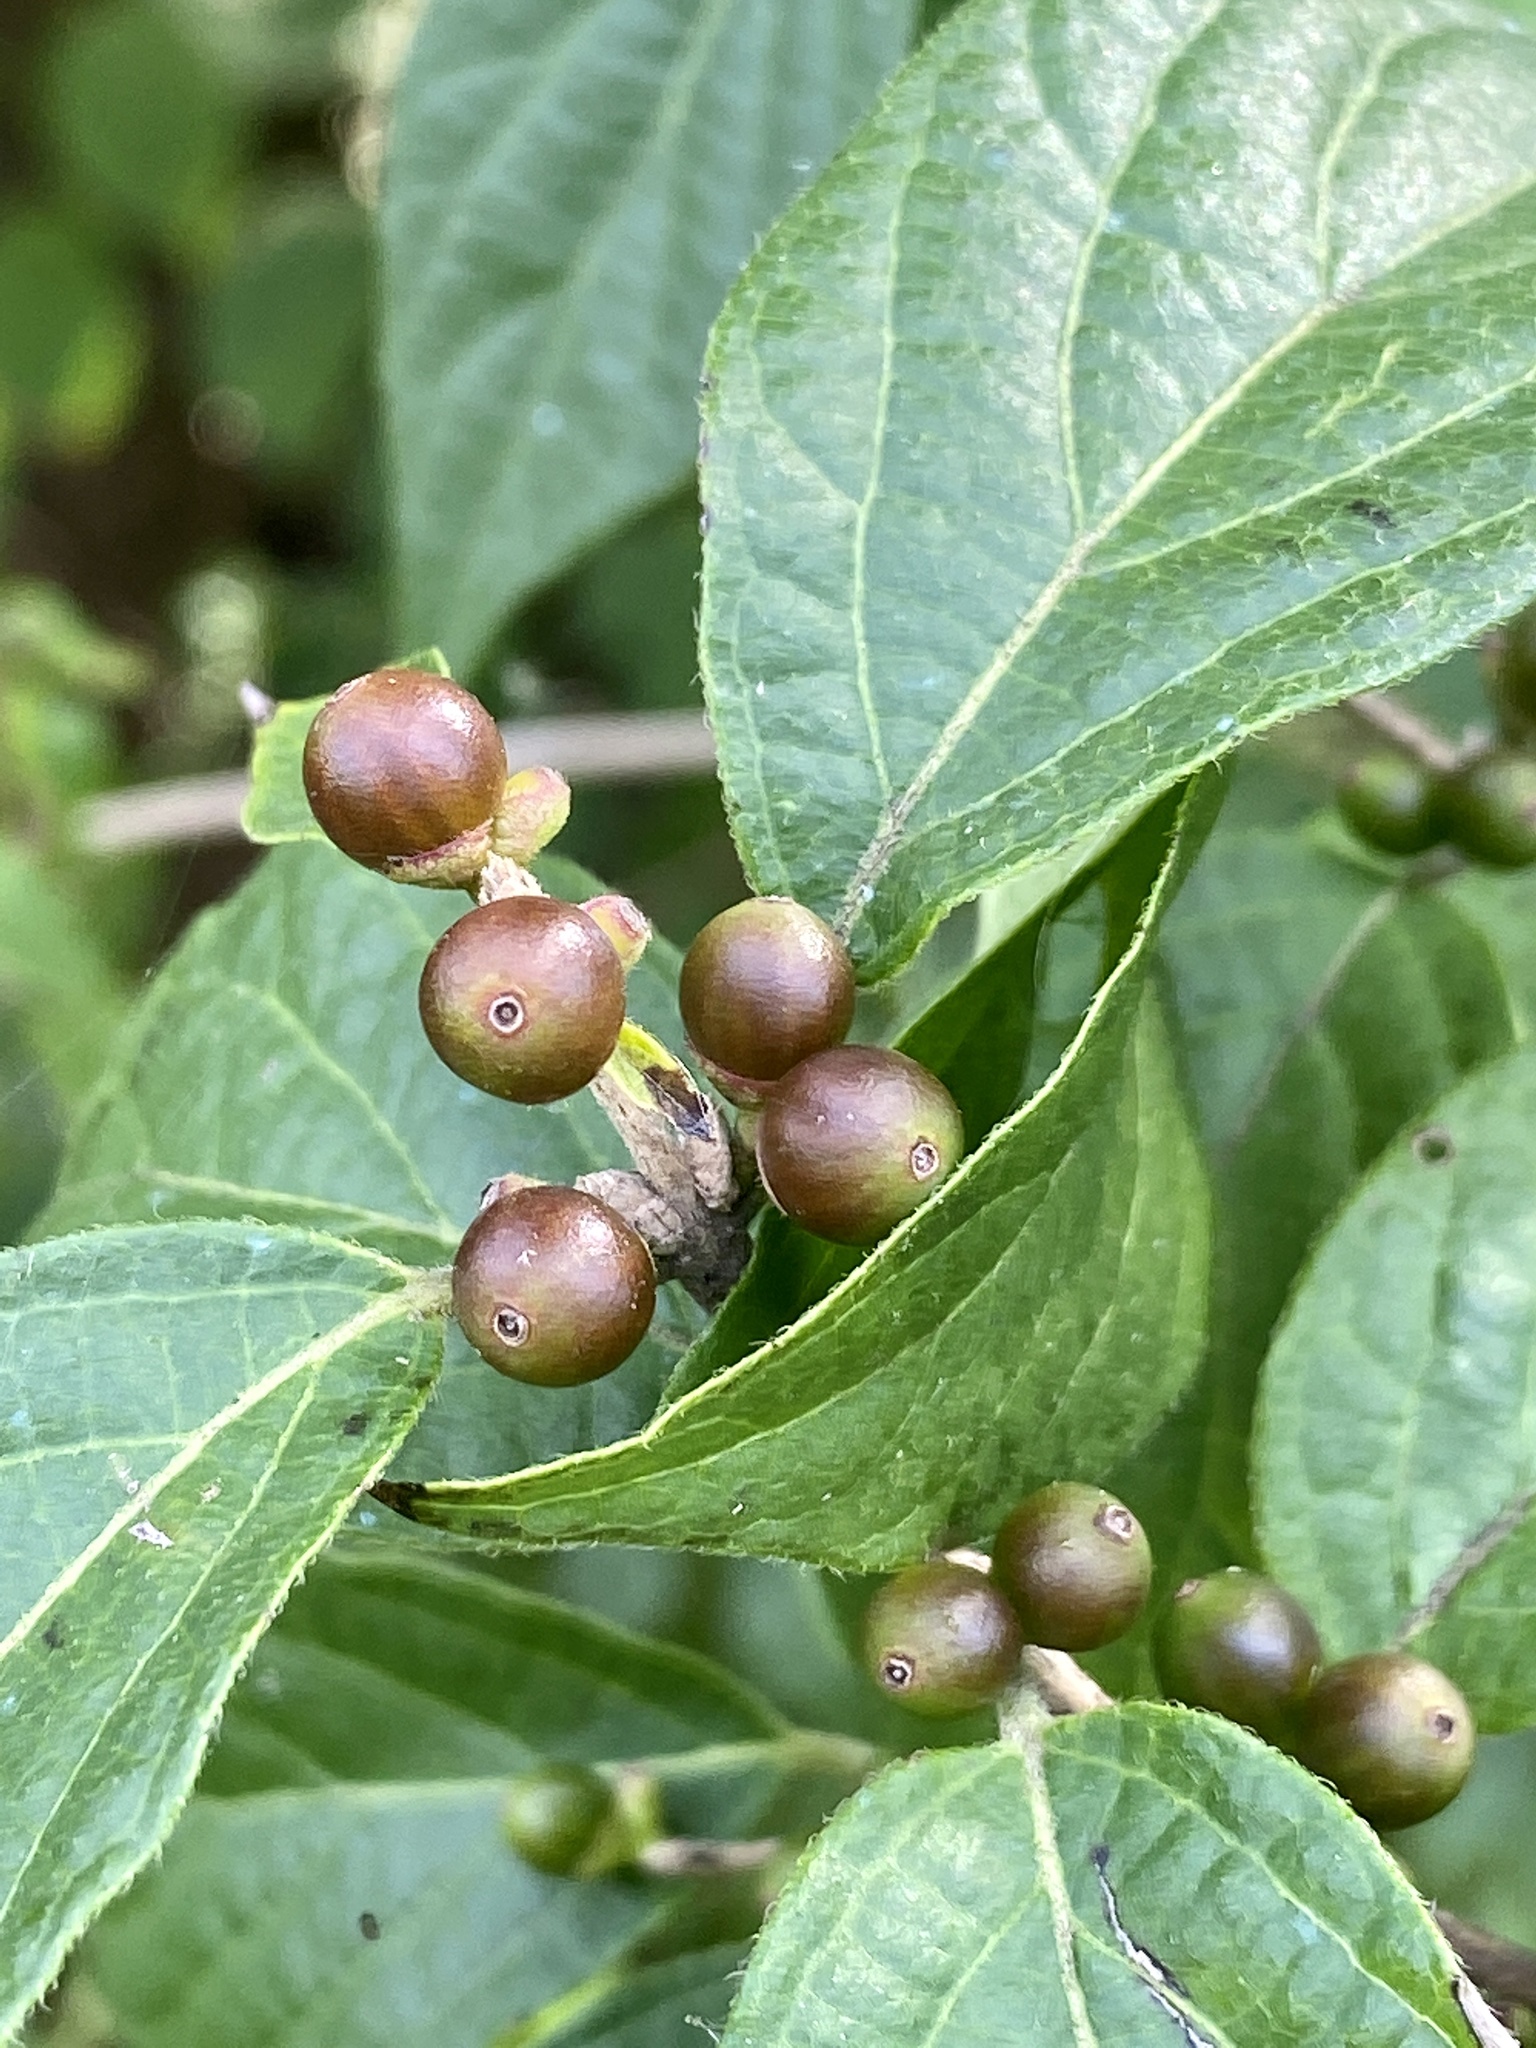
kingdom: Plantae
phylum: Tracheophyta
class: Magnoliopsida
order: Dipsacales
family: Caprifoliaceae
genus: Lonicera
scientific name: Lonicera maackii
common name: Amur honeysuckle
